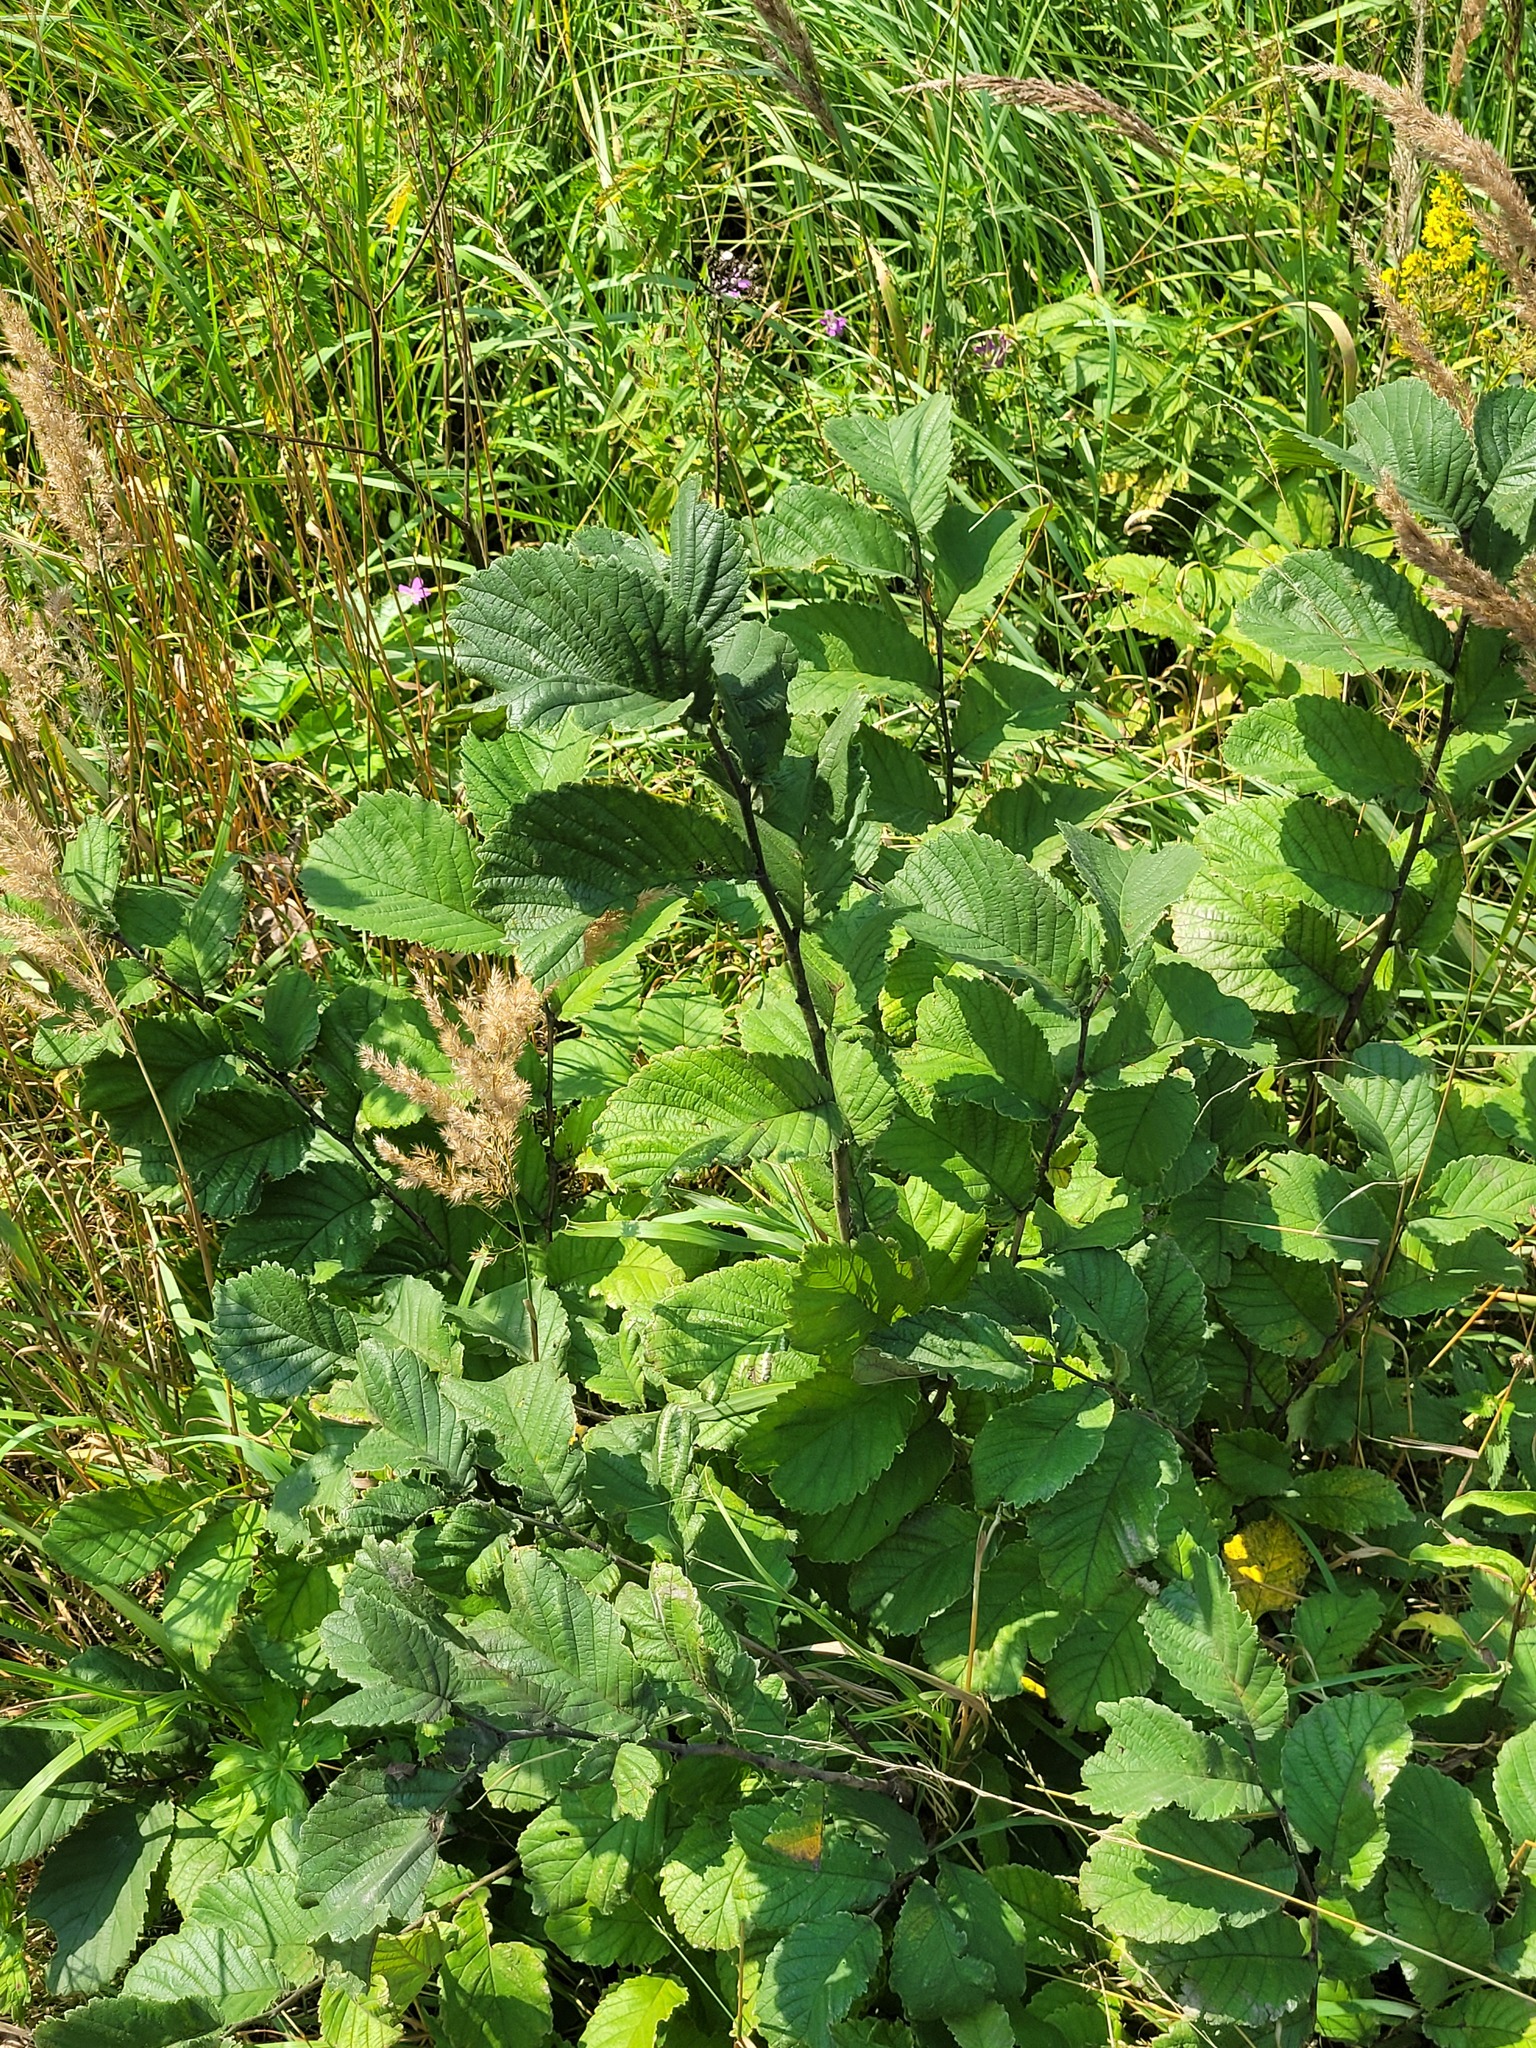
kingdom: Plantae
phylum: Tracheophyta
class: Magnoliopsida
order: Rosales
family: Ulmaceae
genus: Ulmus
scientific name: Ulmus glabra
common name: Wych elm
